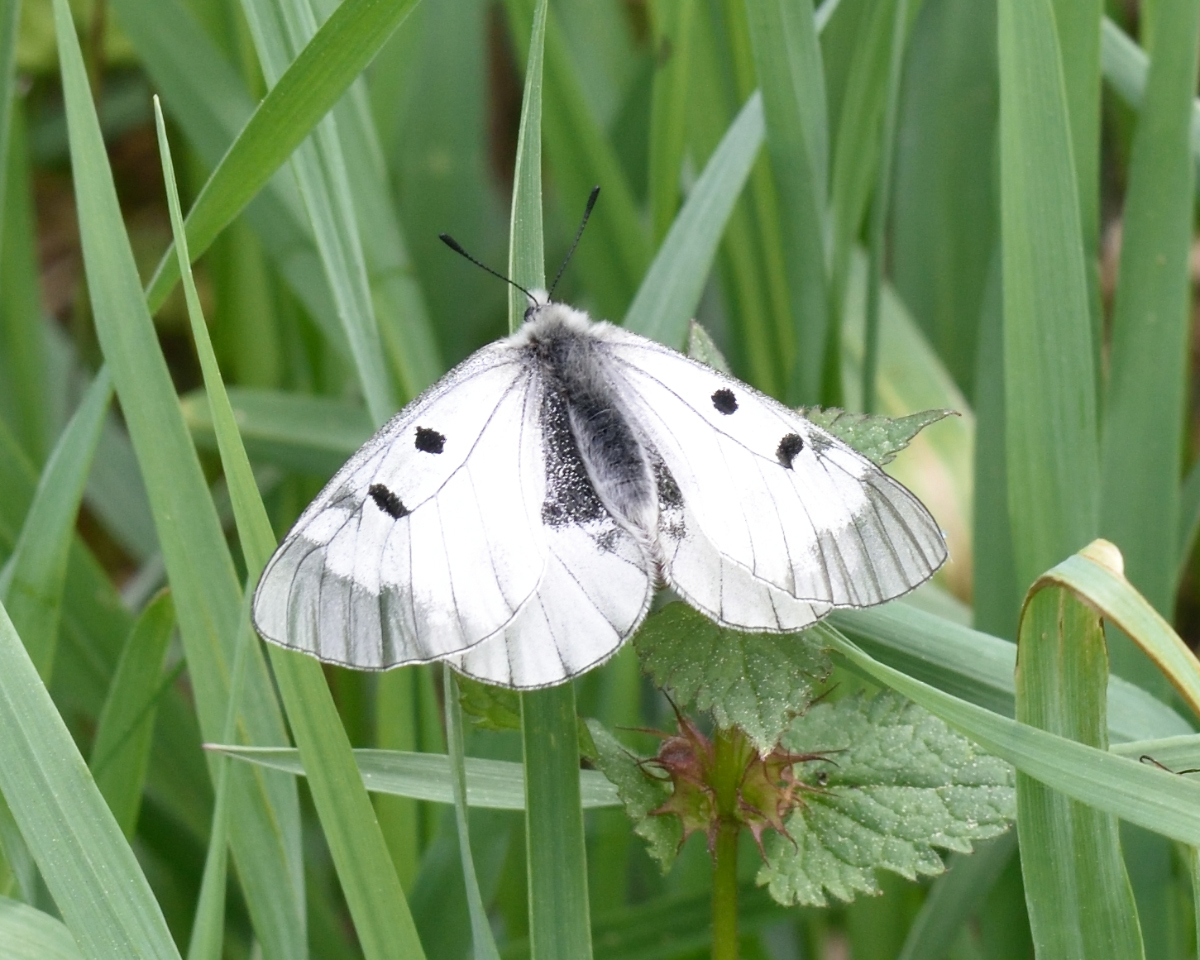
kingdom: Animalia
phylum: Arthropoda
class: Insecta
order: Lepidoptera
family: Papilionidae
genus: Parnassius
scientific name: Parnassius mnemosyne
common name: Clouded apollo
